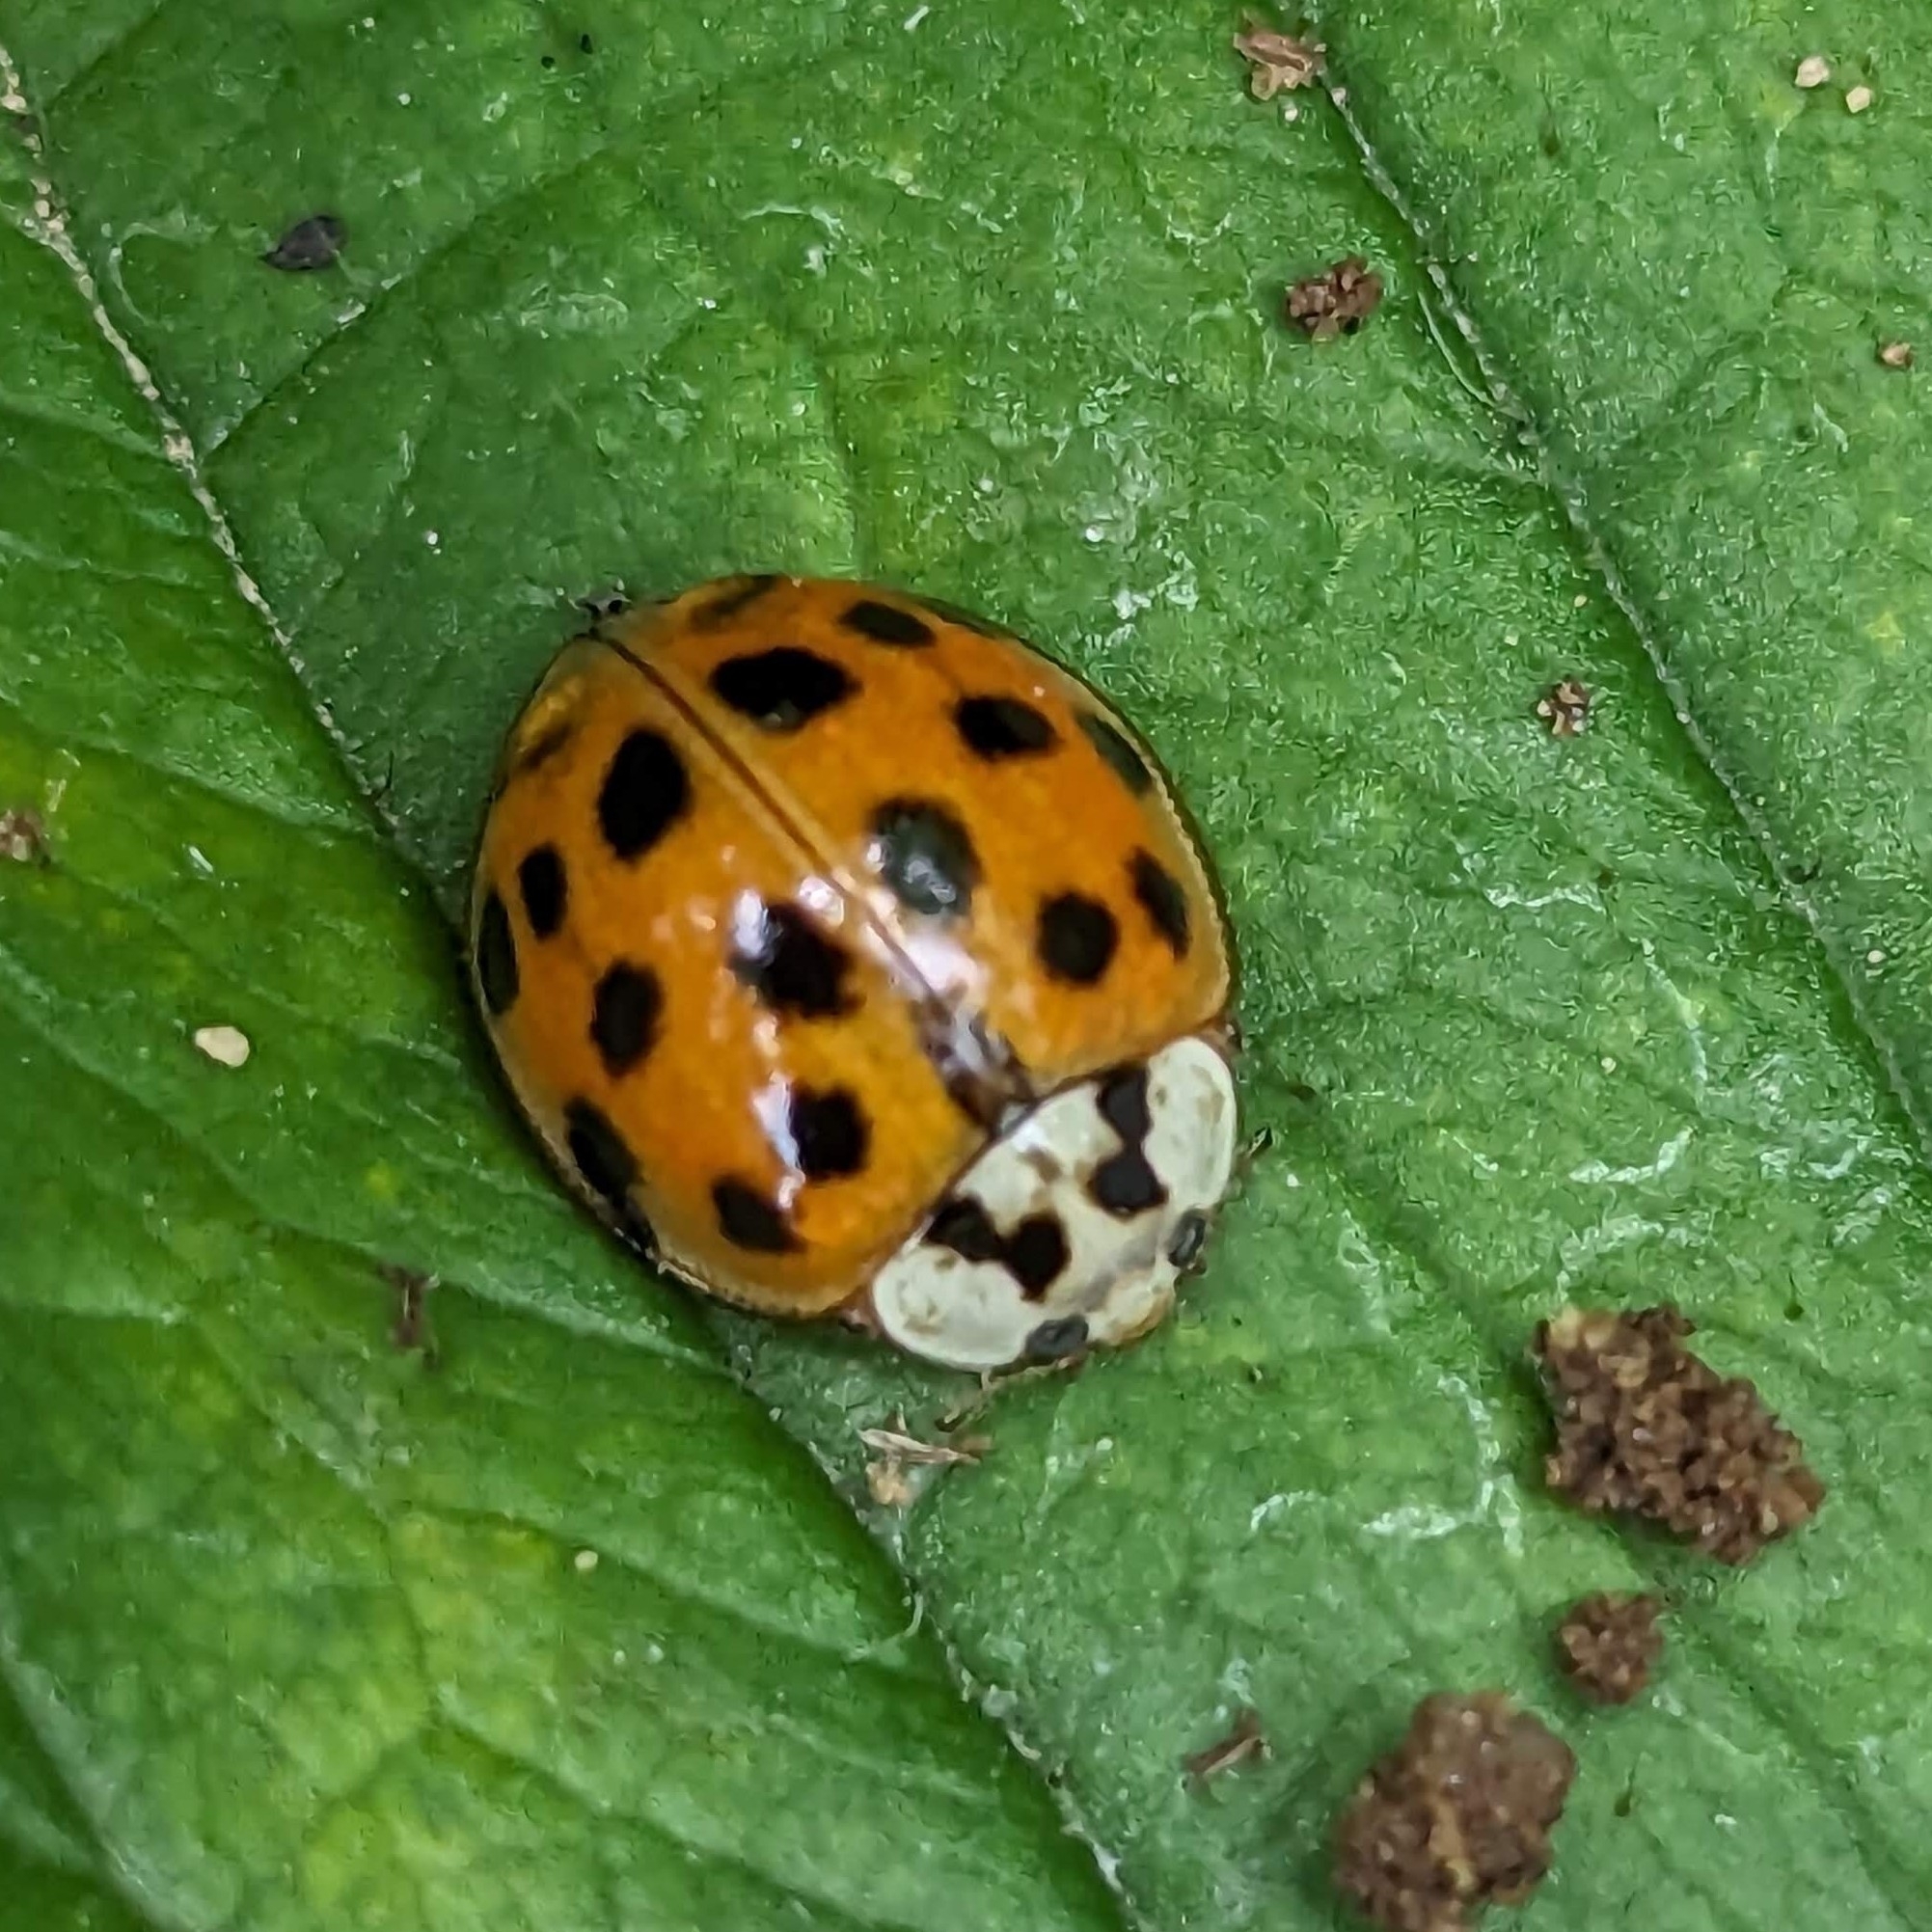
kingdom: Animalia
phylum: Arthropoda
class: Insecta
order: Coleoptera
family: Coccinellidae
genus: Harmonia
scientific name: Harmonia axyridis
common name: Harlequin ladybird
